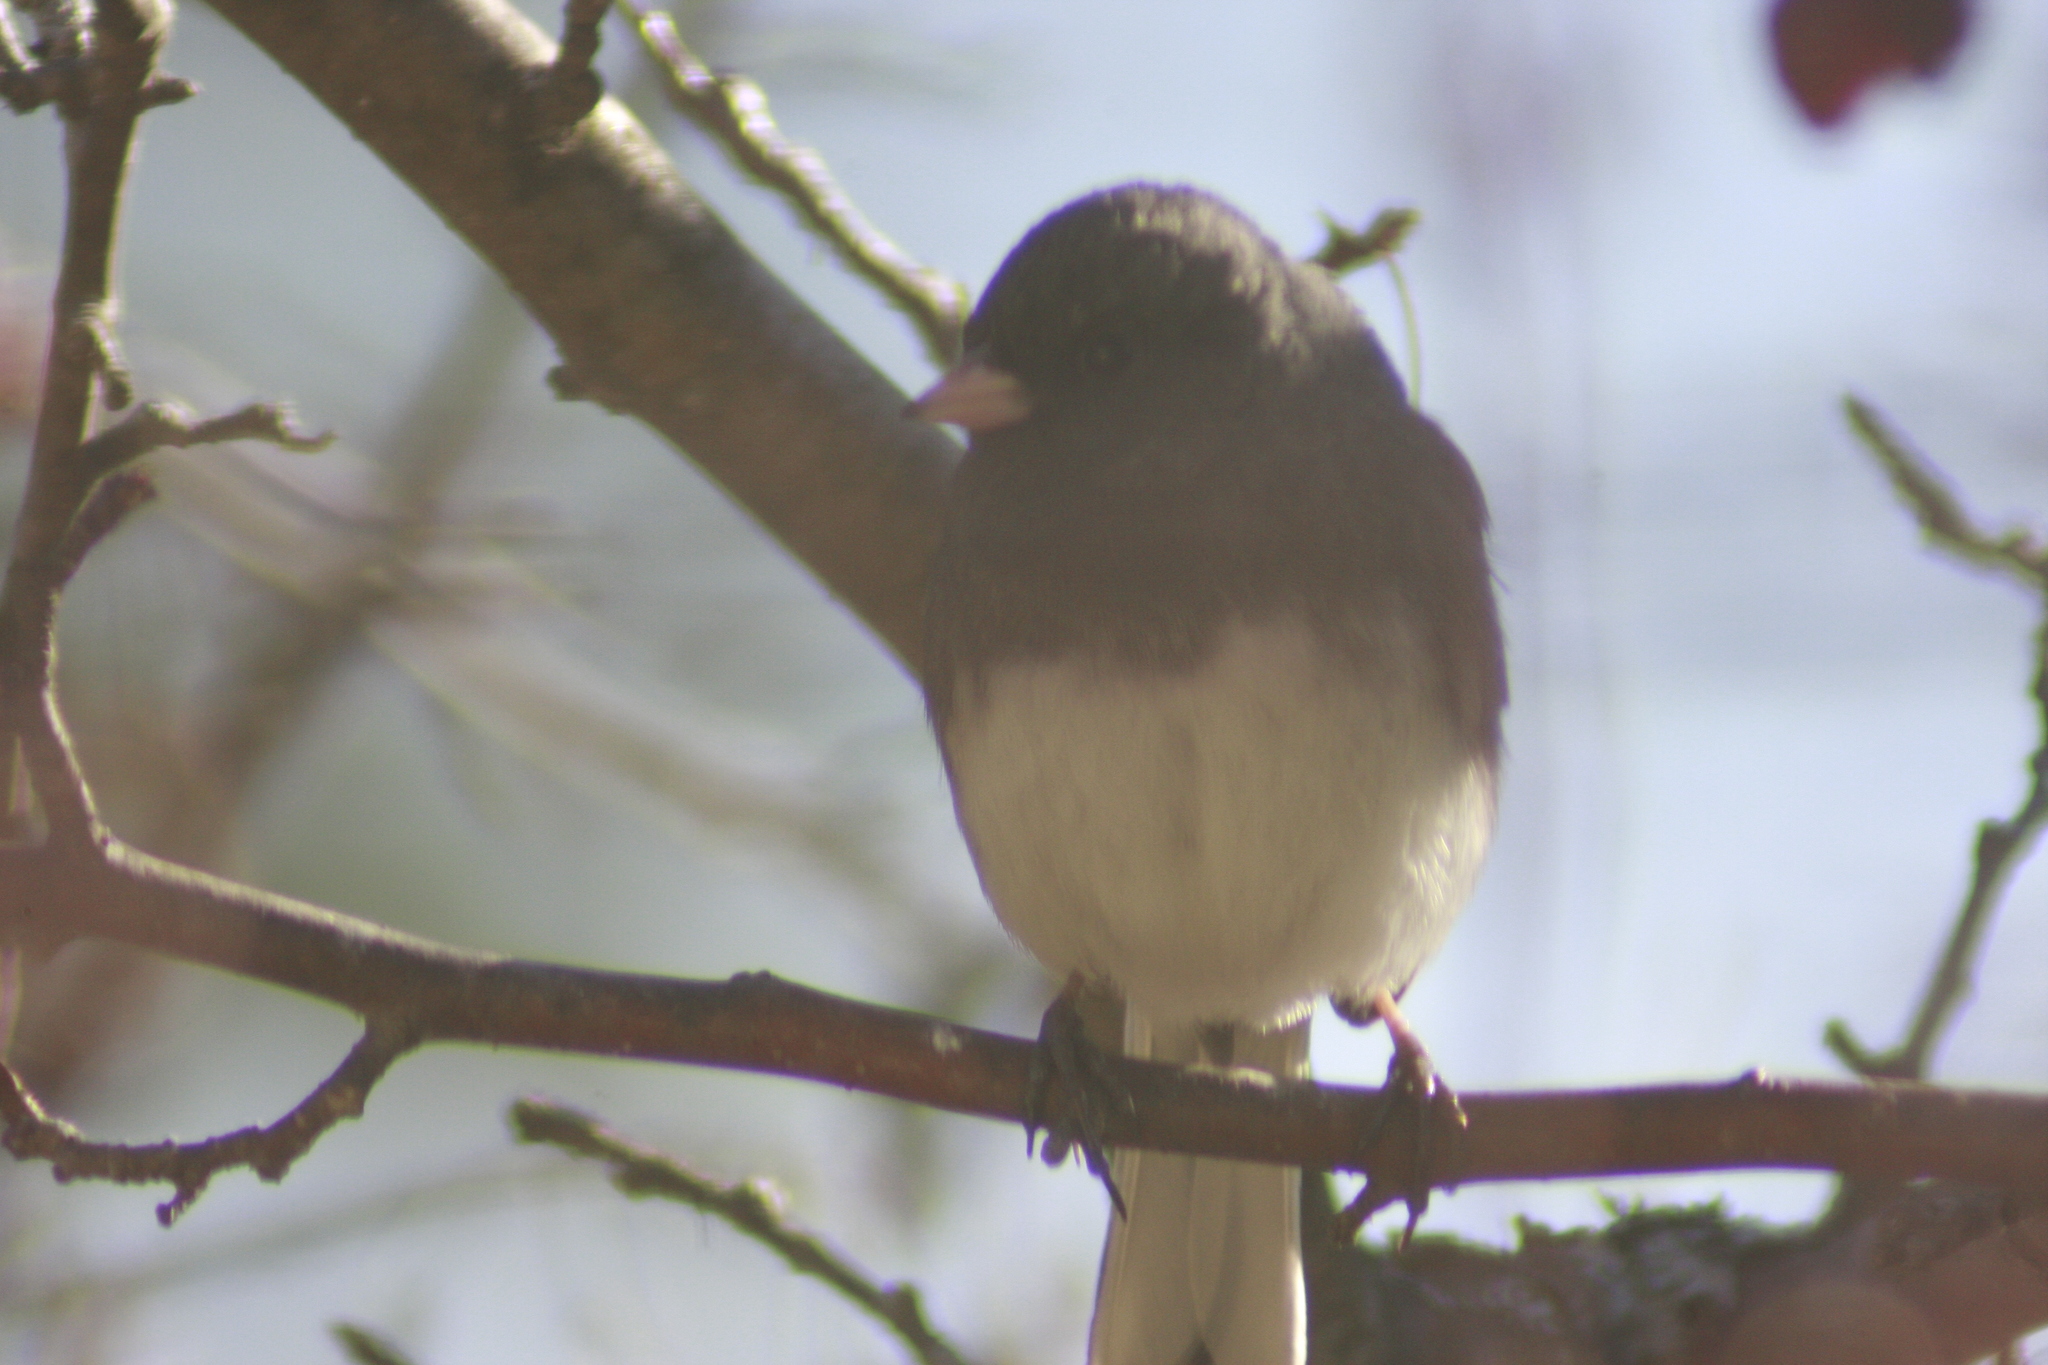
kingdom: Animalia
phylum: Chordata
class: Aves
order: Passeriformes
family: Passerellidae
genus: Junco
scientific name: Junco hyemalis
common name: Dark-eyed junco
